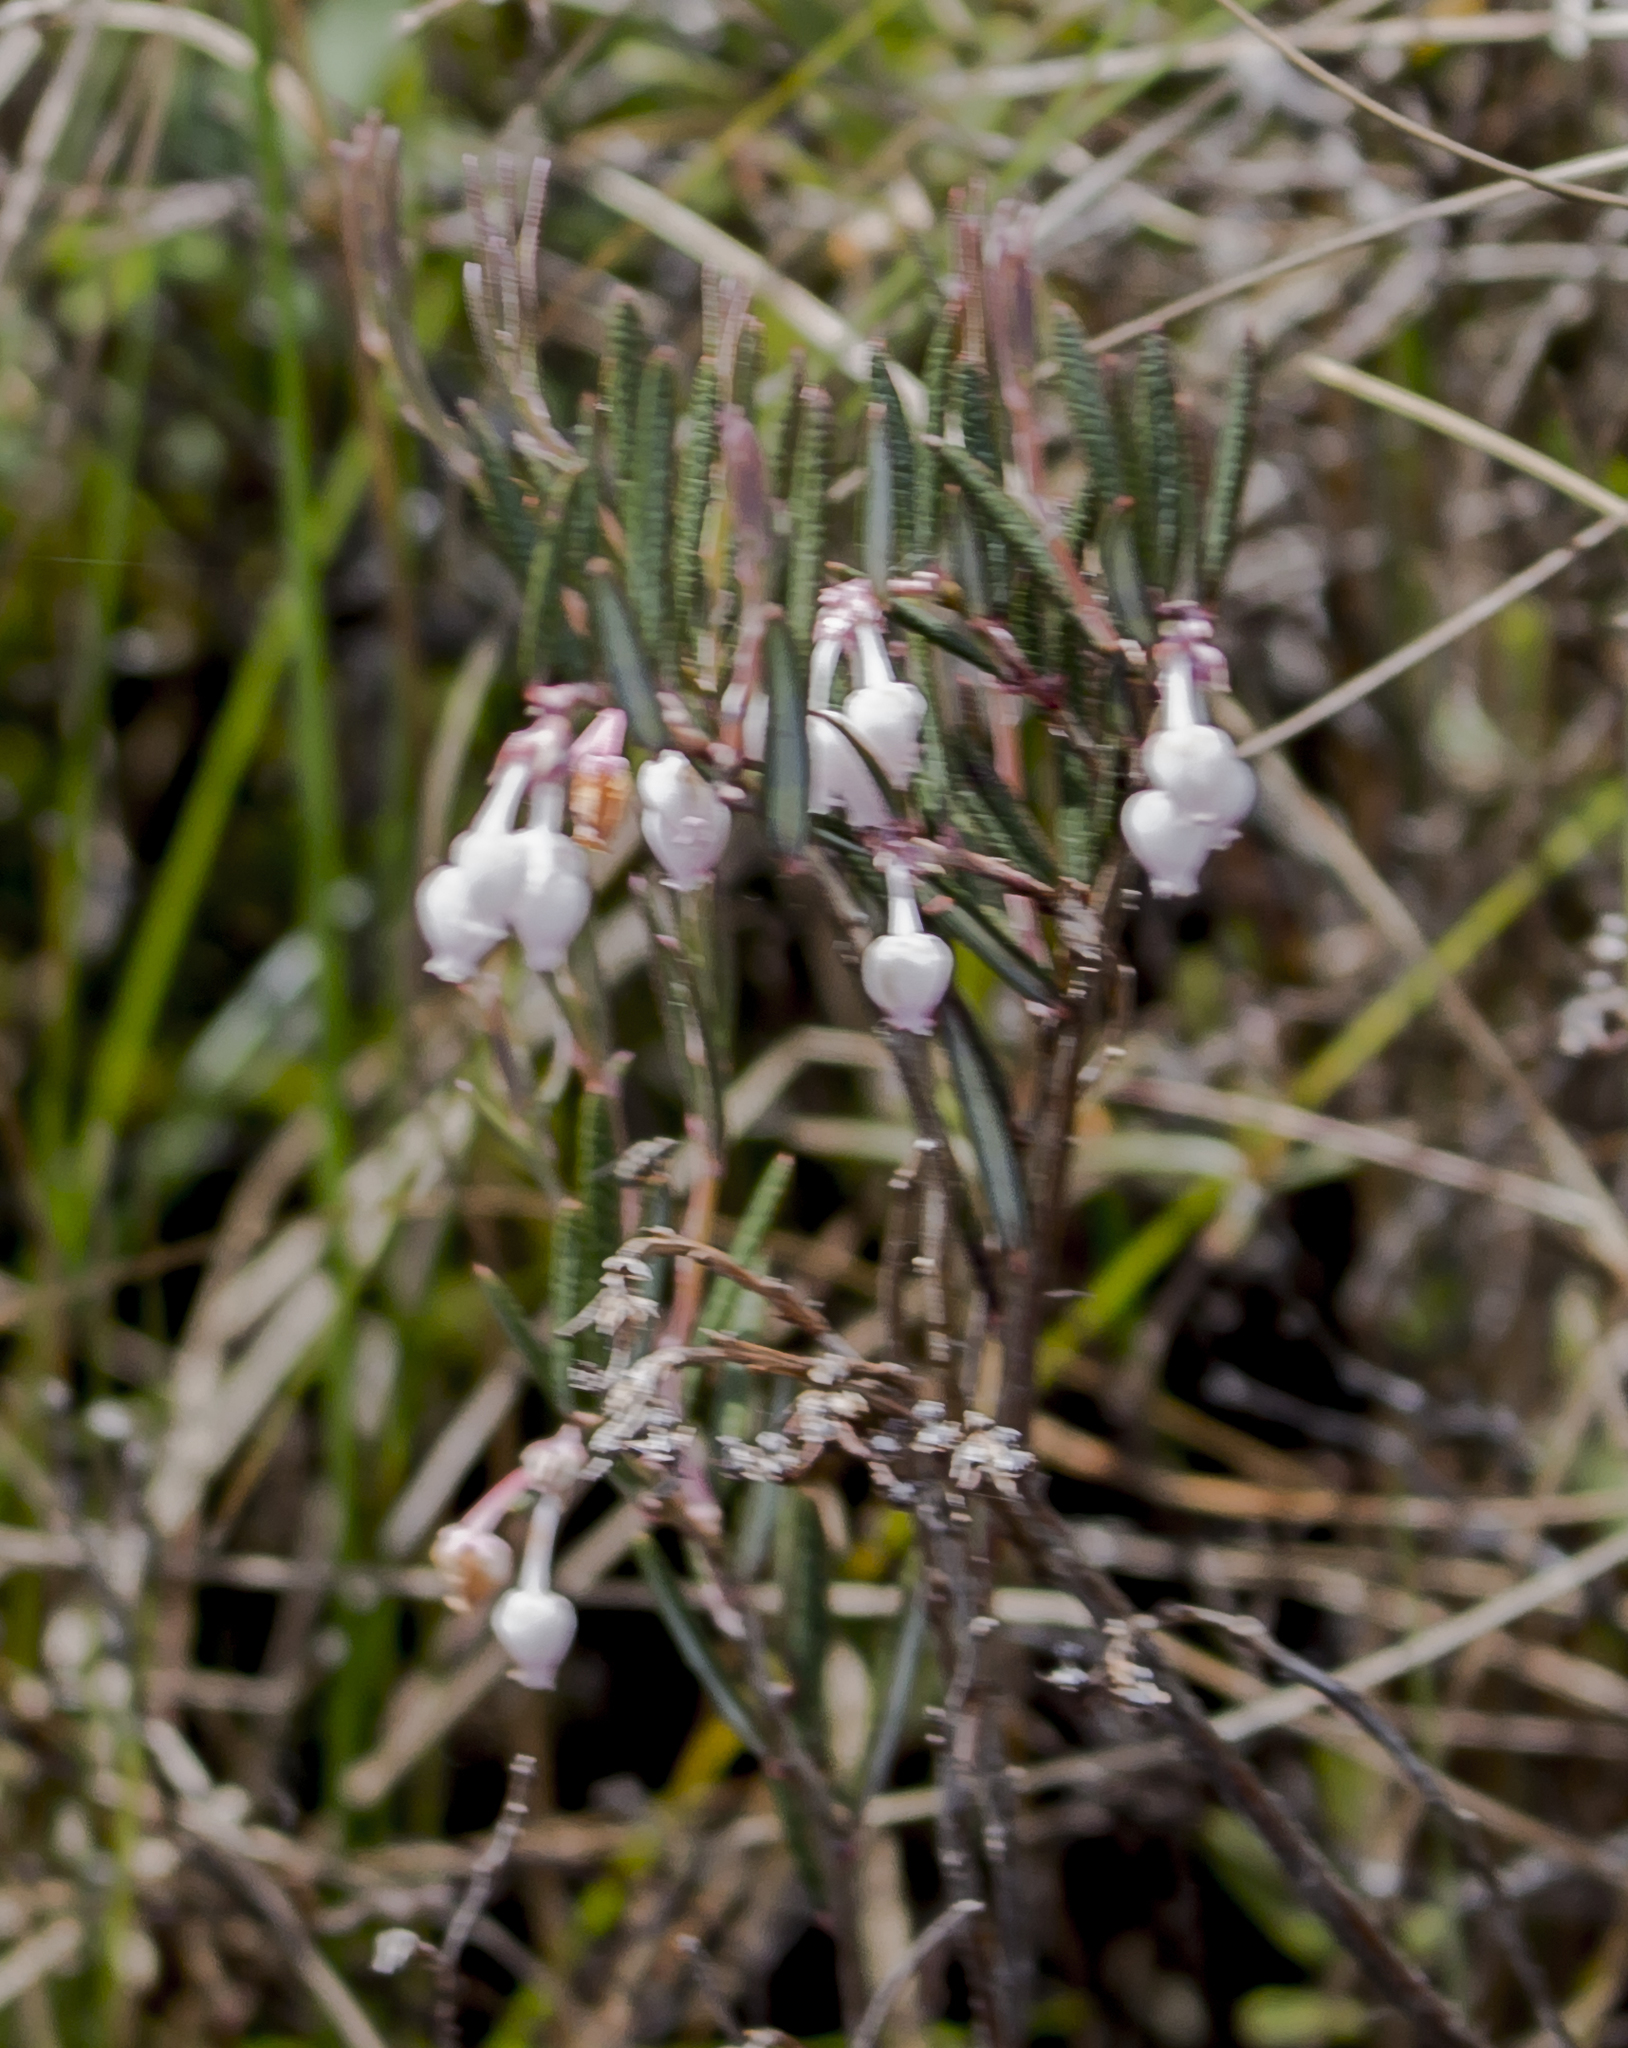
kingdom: Plantae
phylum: Tracheophyta
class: Magnoliopsida
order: Ericales
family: Ericaceae
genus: Andromeda
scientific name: Andromeda polifolia
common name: Bog-rosemary
